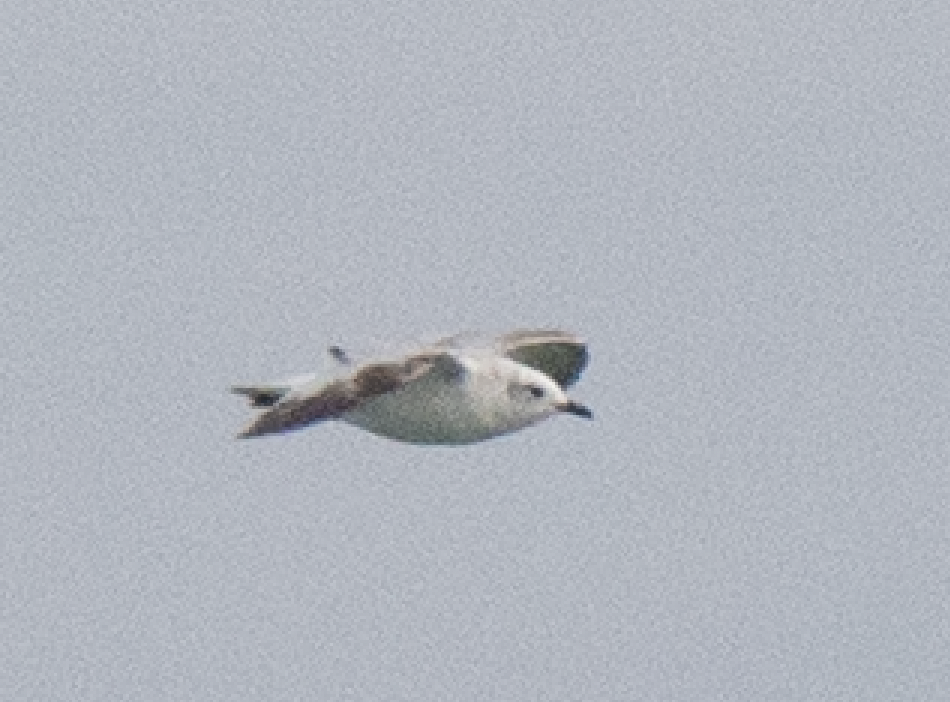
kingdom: Animalia
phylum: Chordata
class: Aves
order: Charadriiformes
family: Laridae
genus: Ichthyaetus
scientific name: Ichthyaetus melanocephalus
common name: Mediterranean gull
